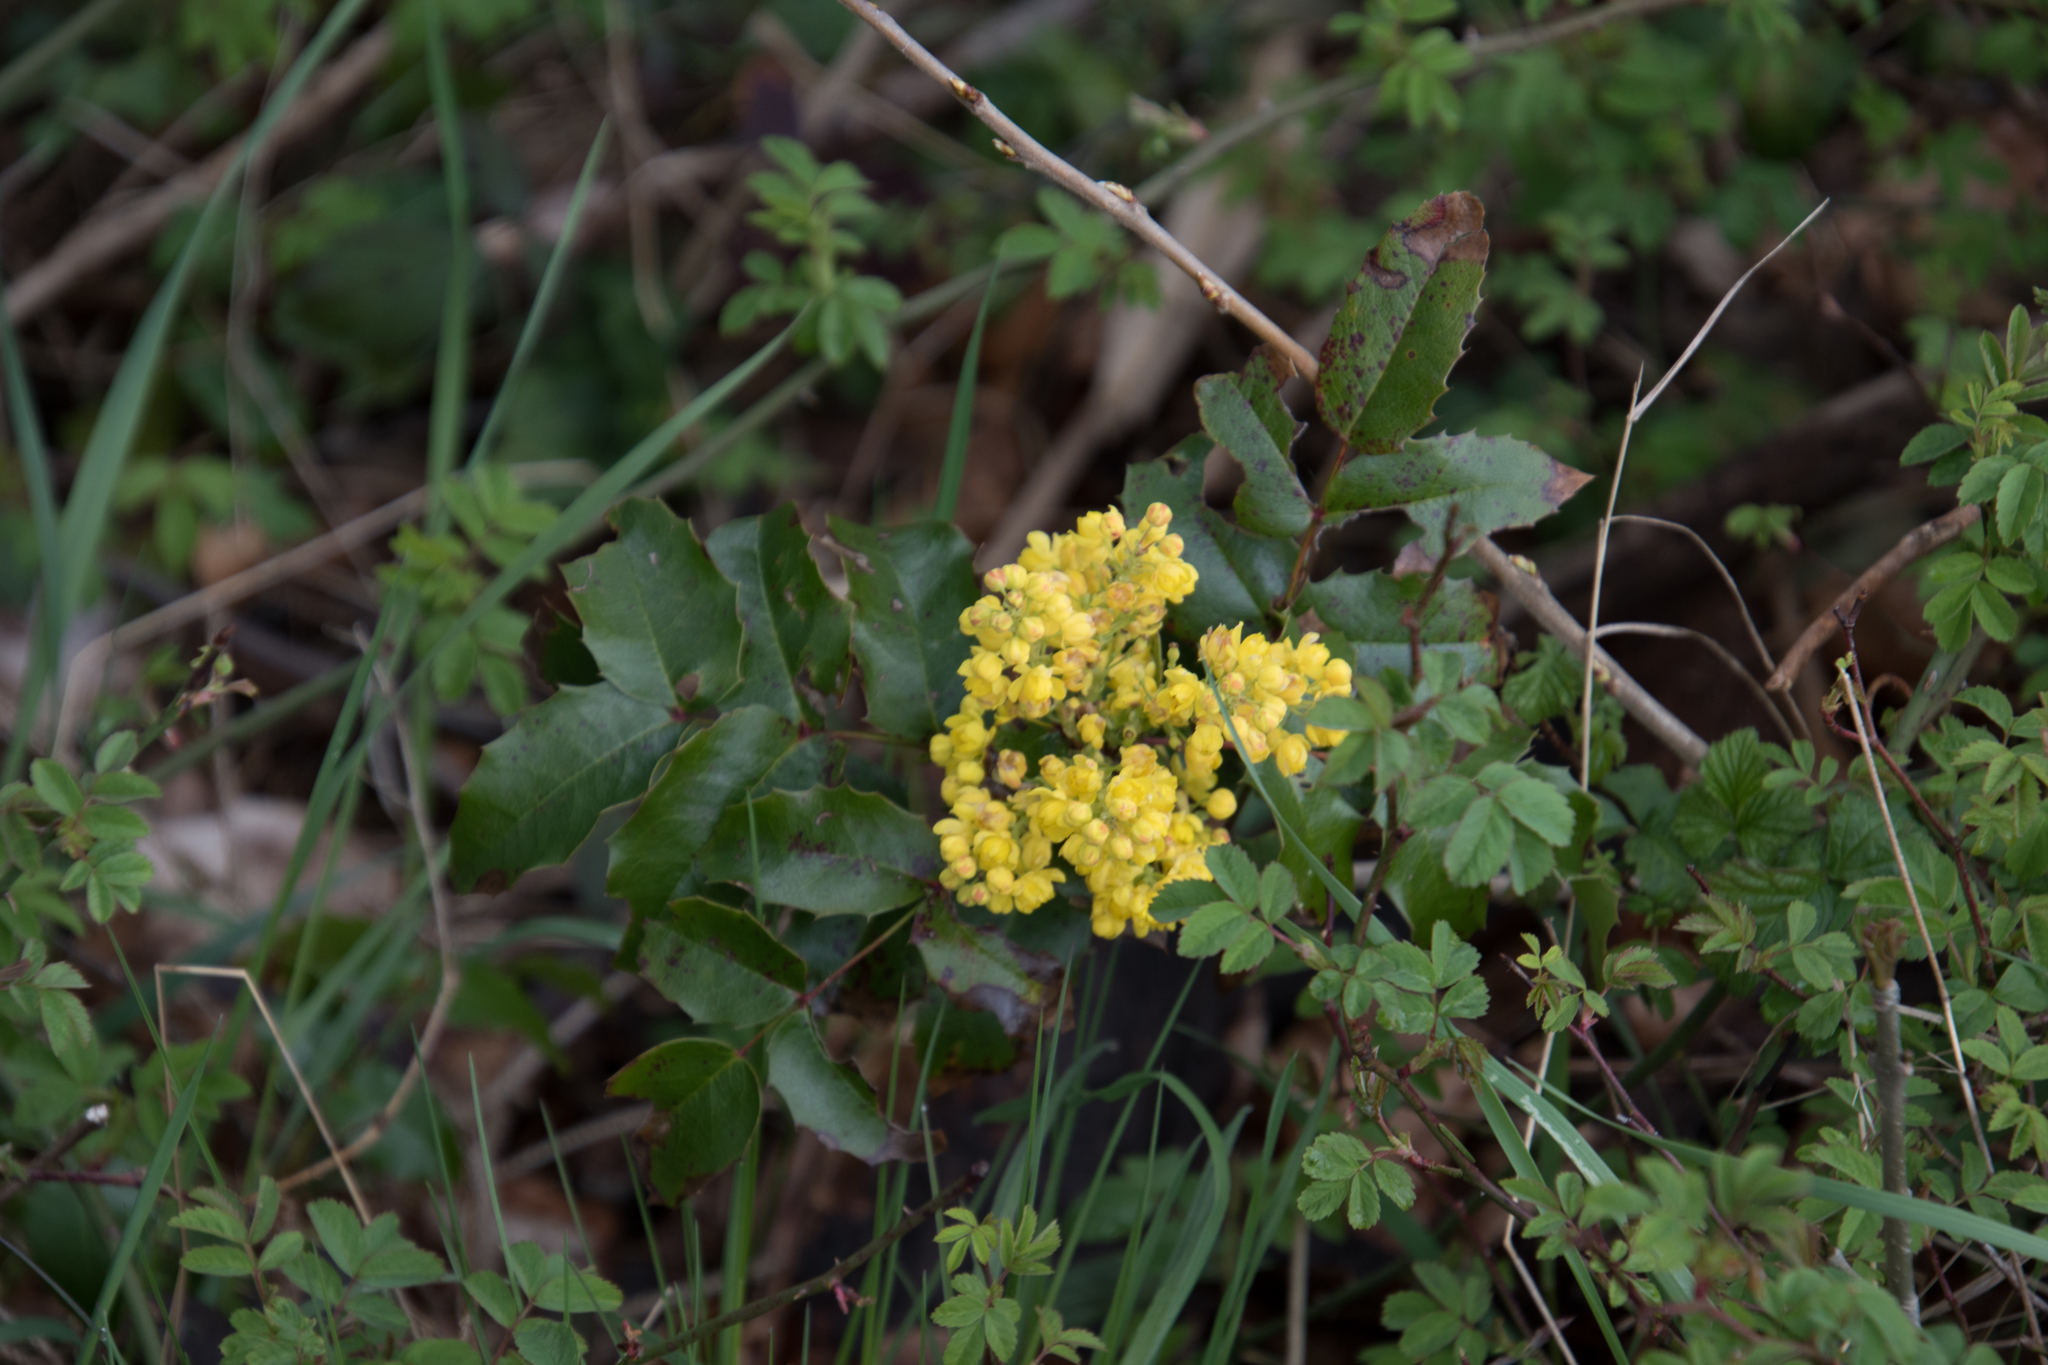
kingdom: Plantae
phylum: Tracheophyta
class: Magnoliopsida
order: Ranunculales
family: Berberidaceae
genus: Mahonia
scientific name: Mahonia aquifolium
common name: Oregon-grape
